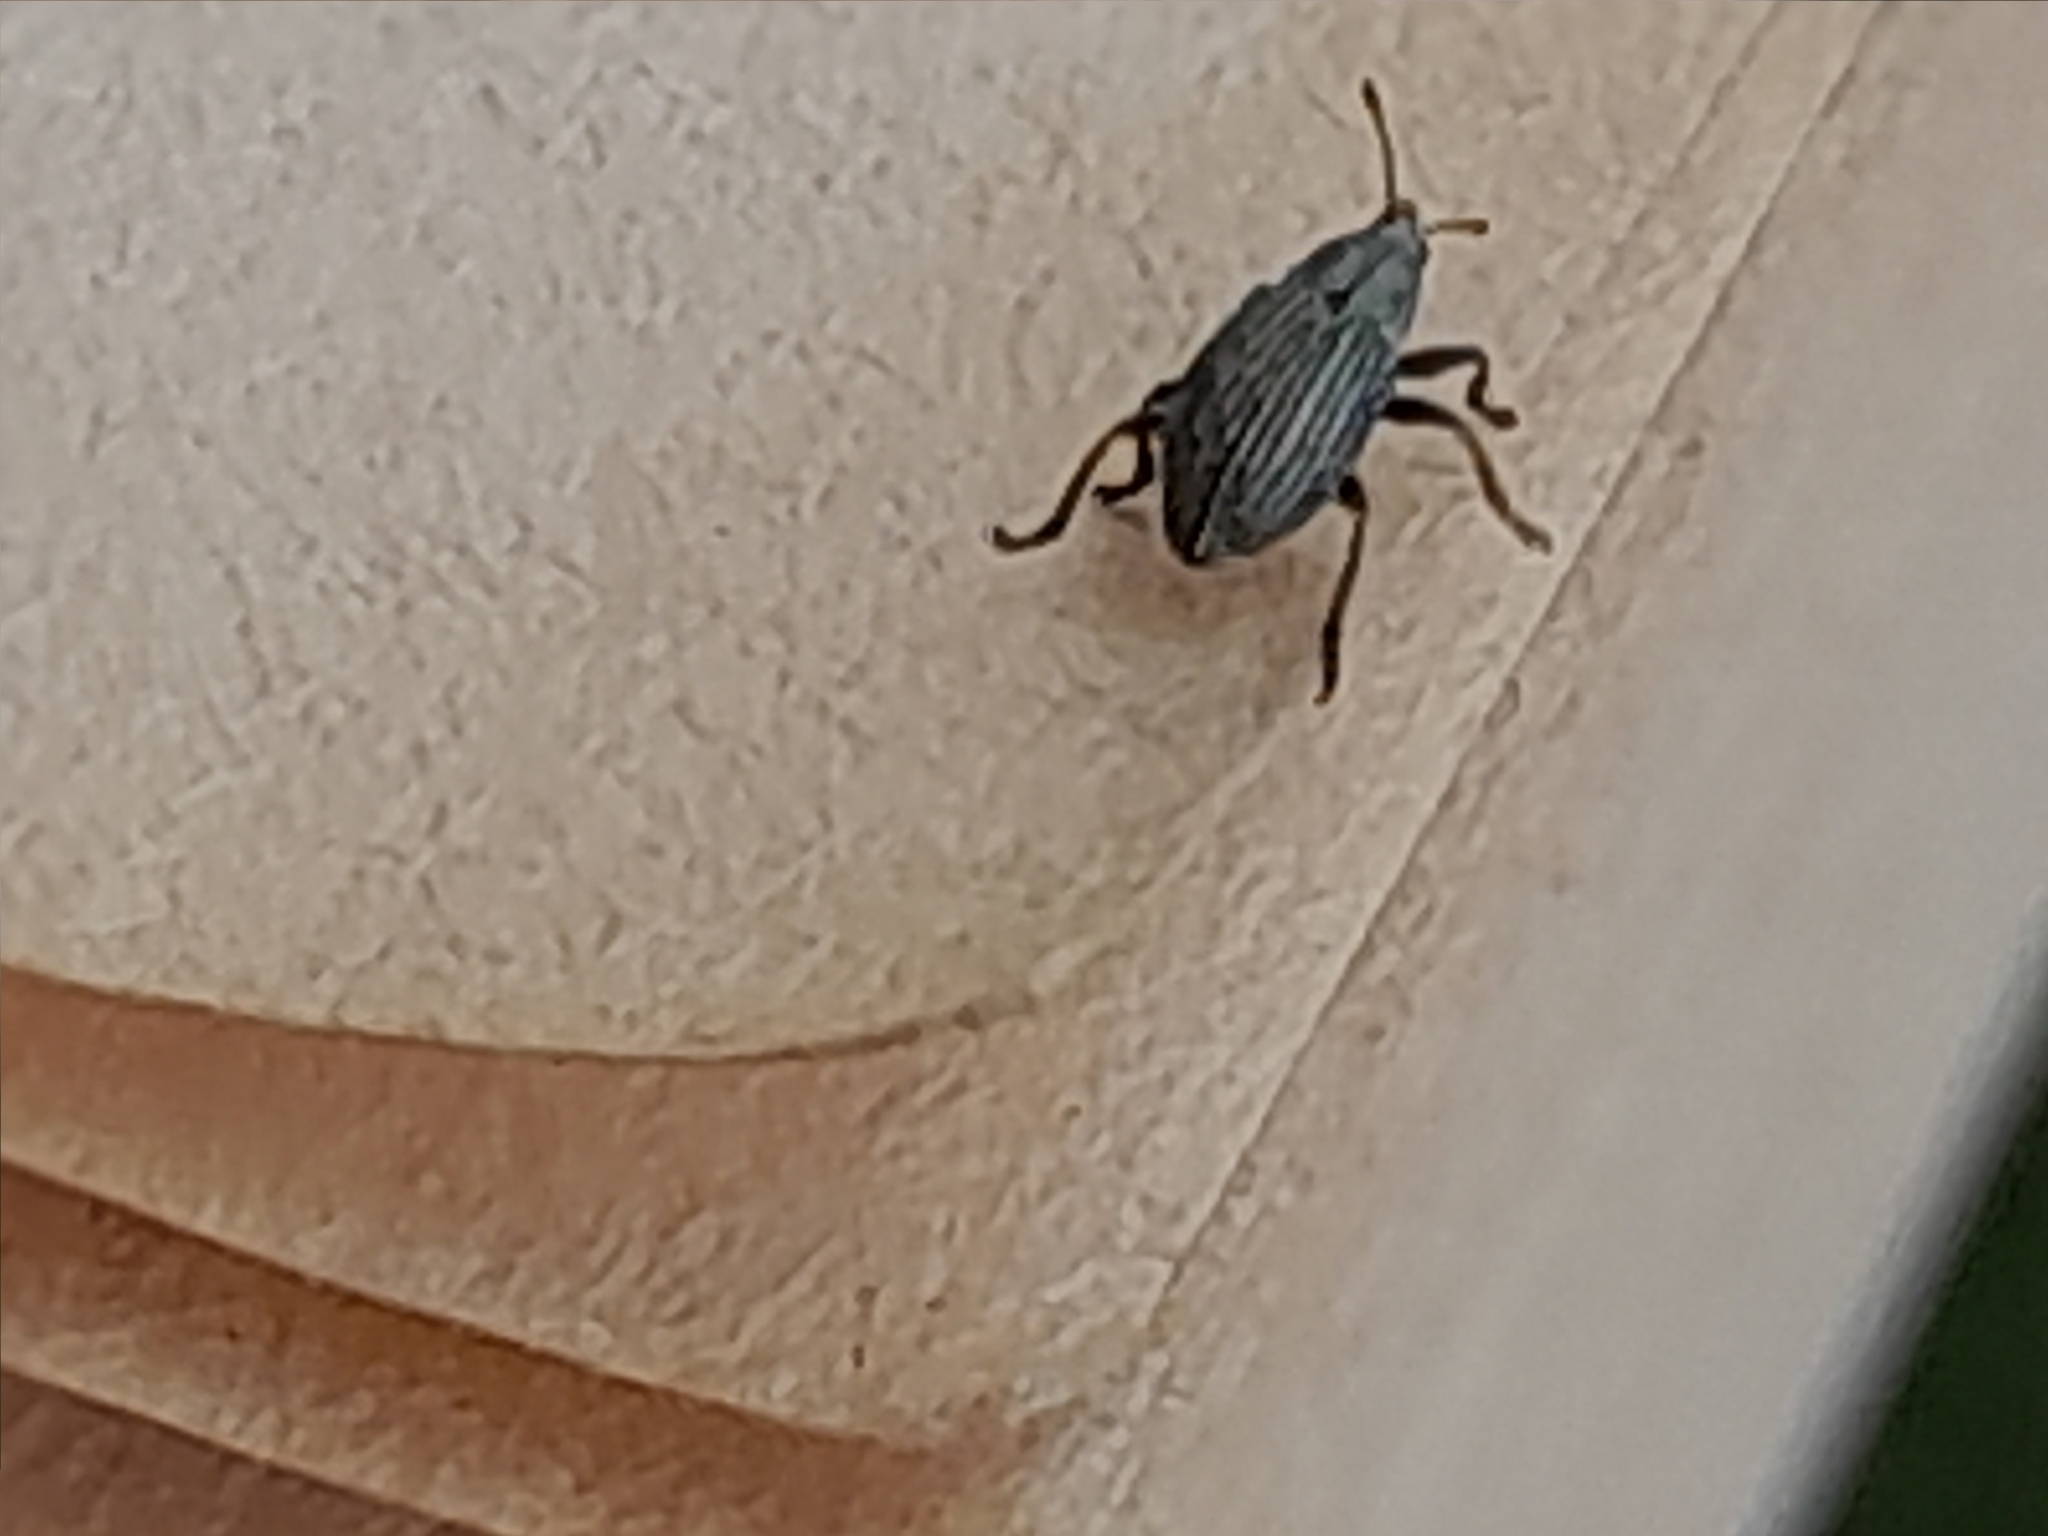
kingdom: Animalia
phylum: Arthropoda
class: Insecta
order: Coleoptera
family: Brentidae
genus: Exapion
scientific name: Exapion ulicis
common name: Gorse seed weevil
